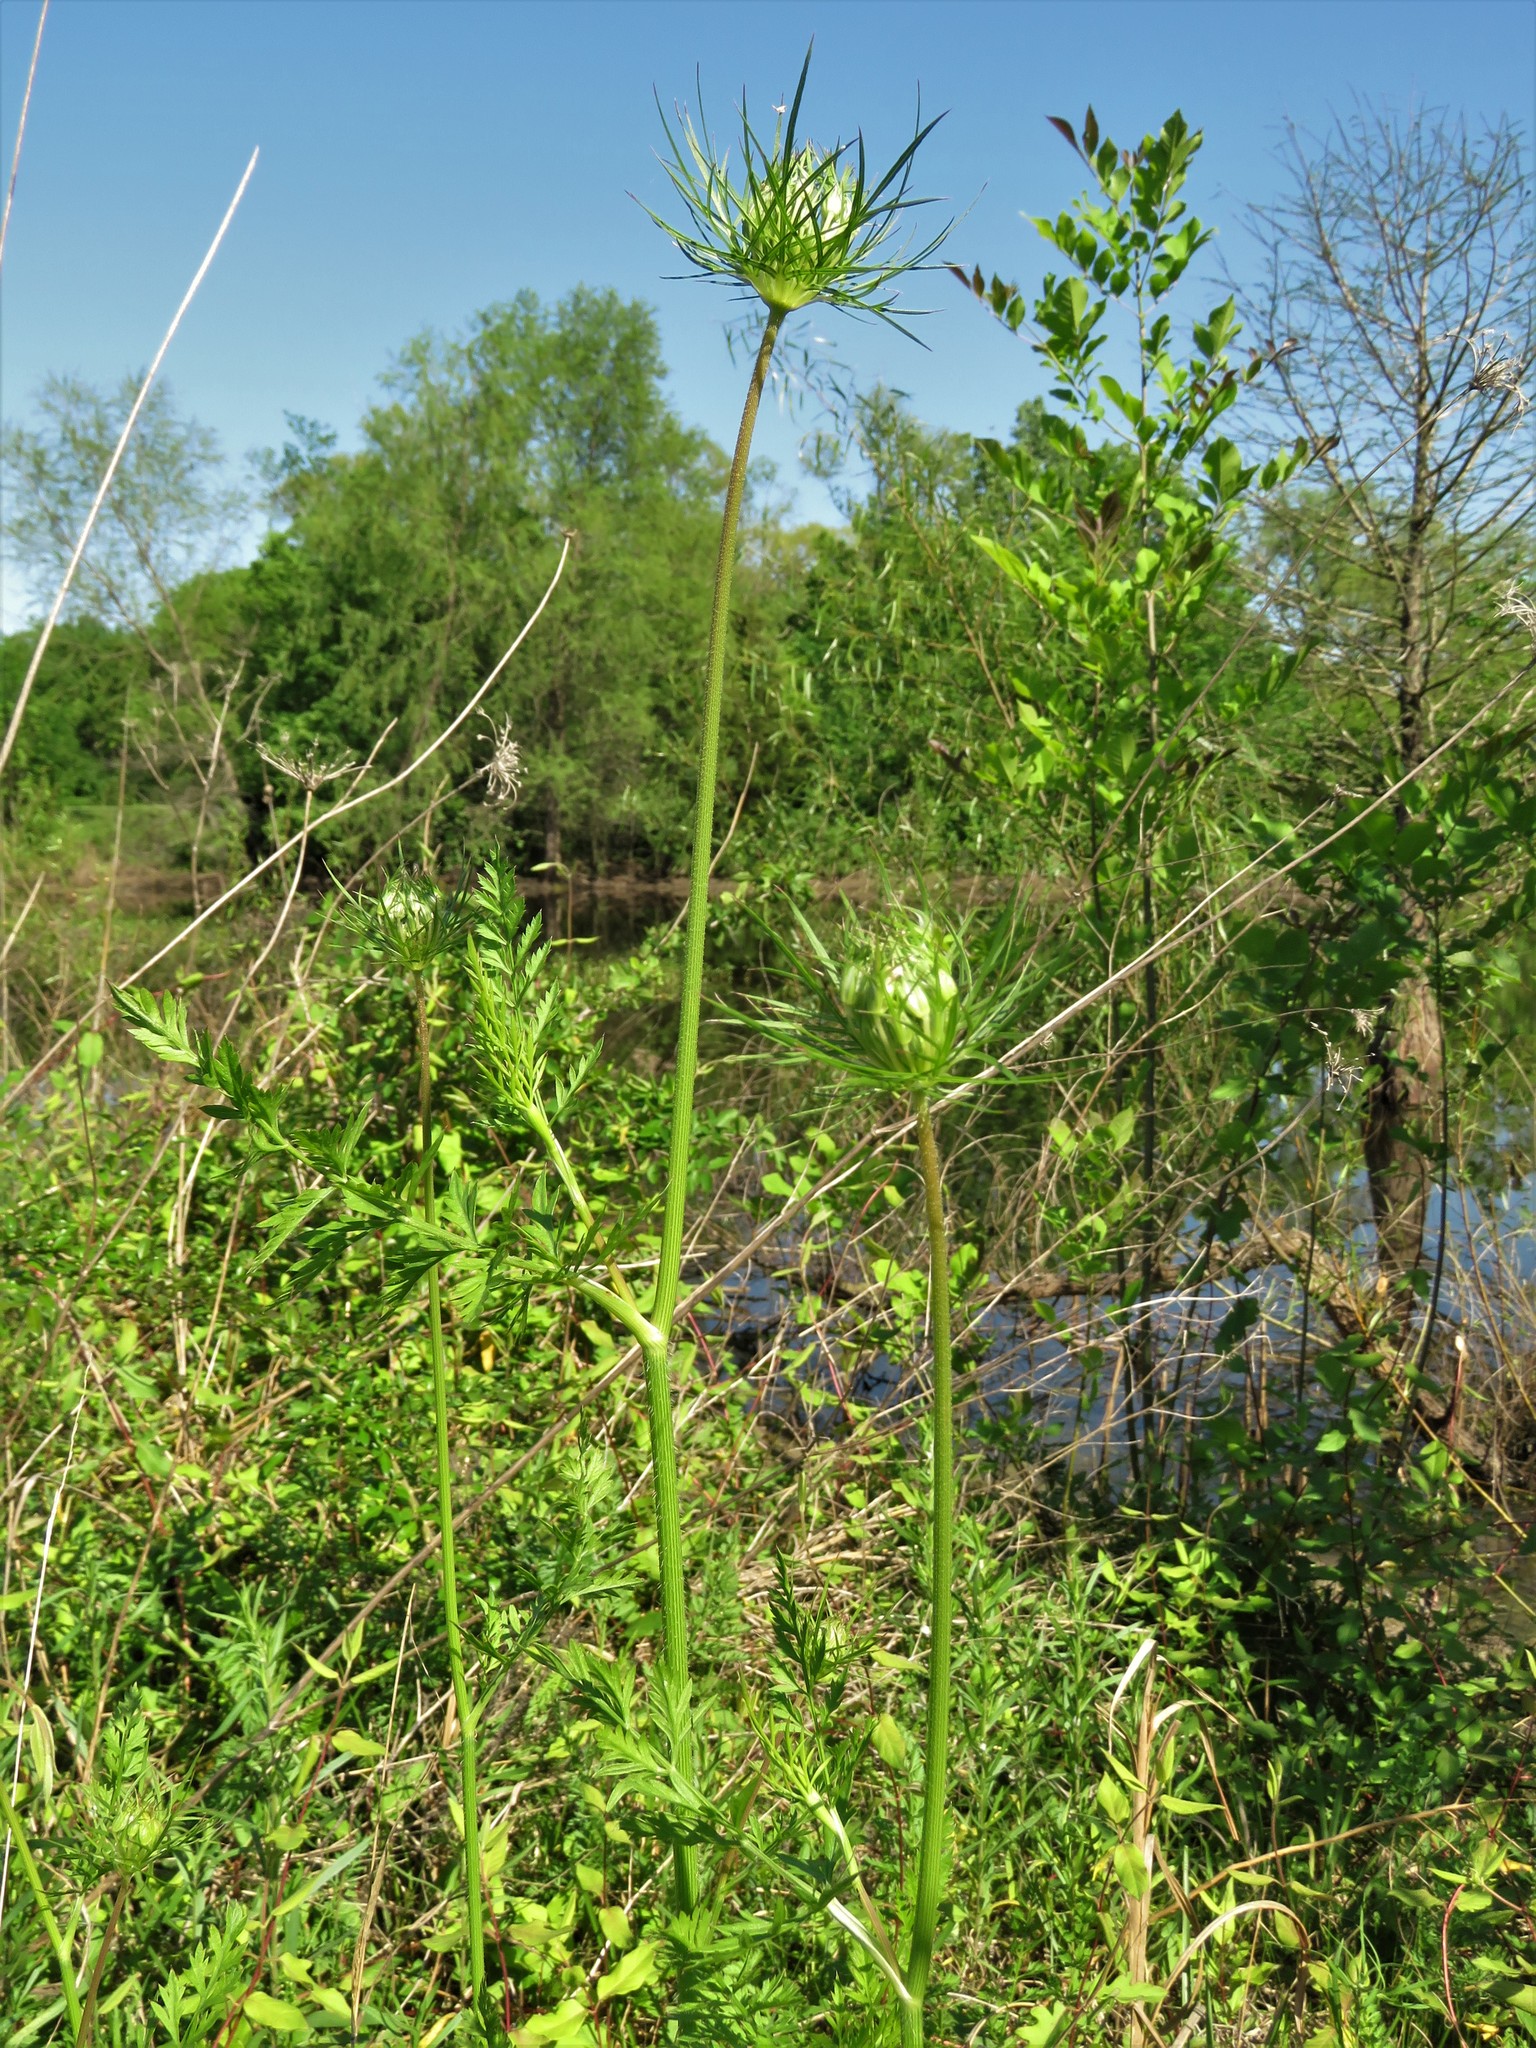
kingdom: Plantae
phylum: Tracheophyta
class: Magnoliopsida
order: Apiales
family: Apiaceae
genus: Daucus
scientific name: Daucus carota
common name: Wild carrot
